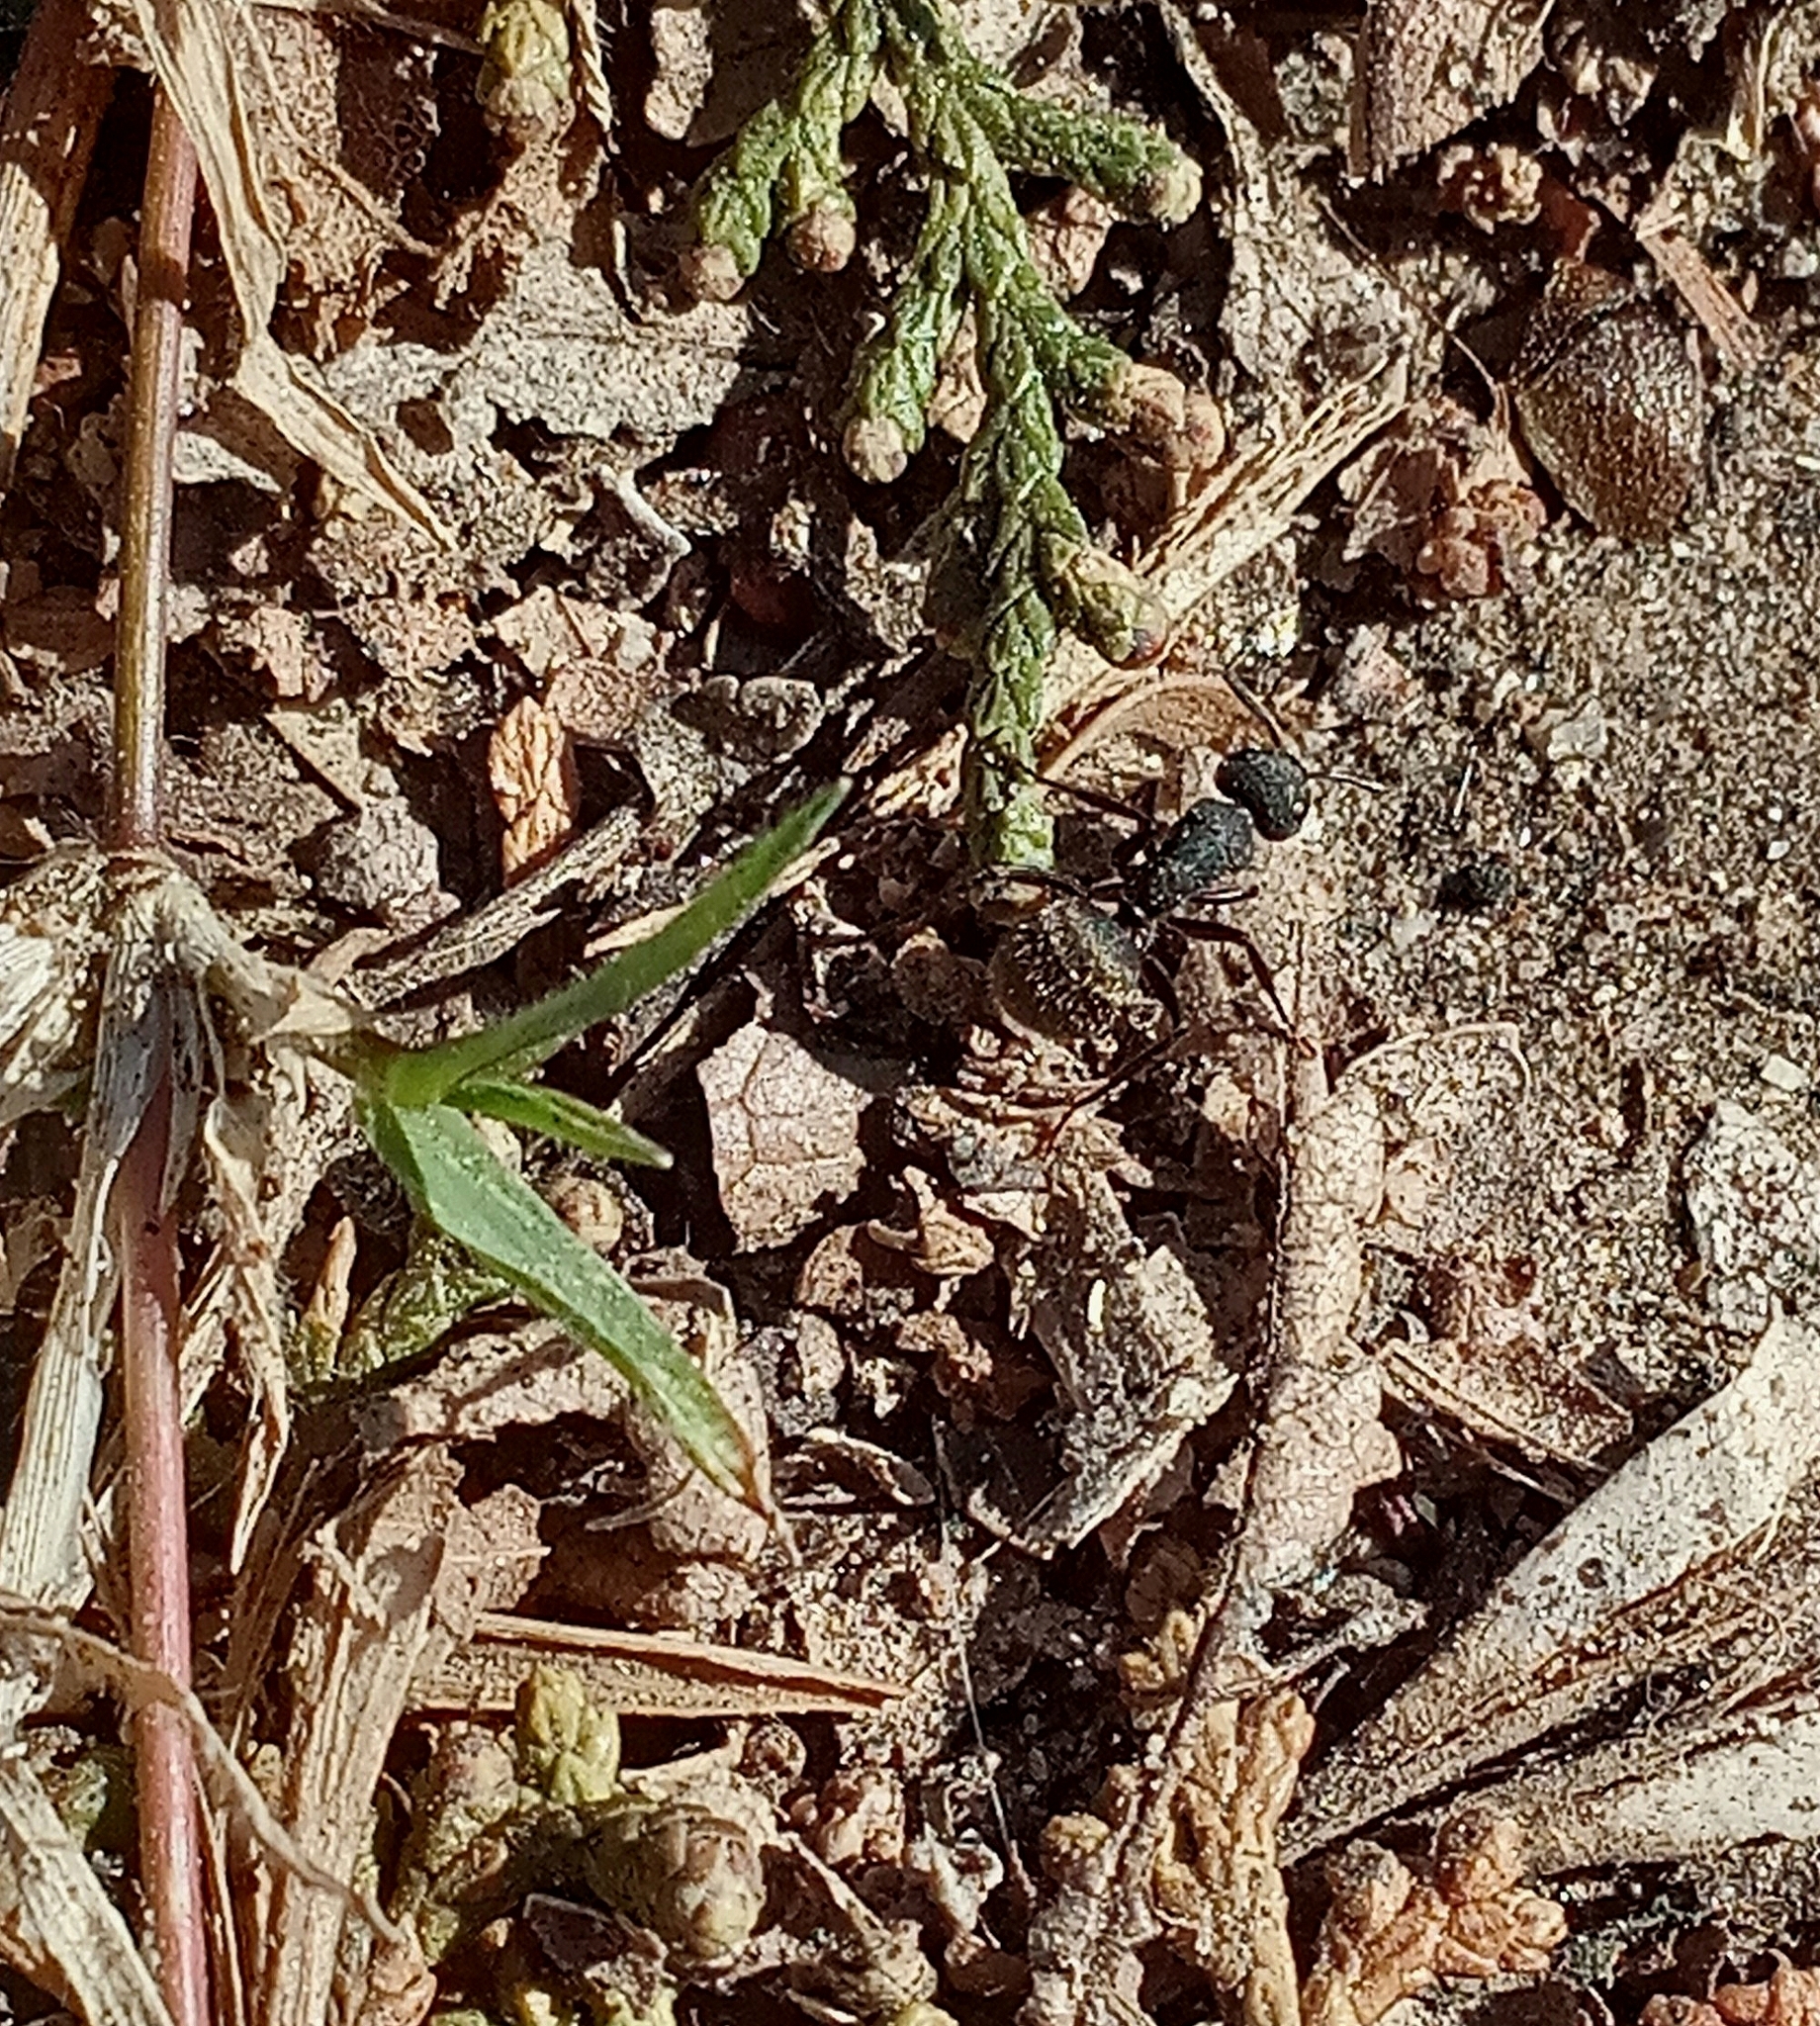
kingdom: Animalia
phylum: Arthropoda
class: Insecta
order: Hymenoptera
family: Formicidae
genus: Camponotus
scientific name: Camponotus mus
